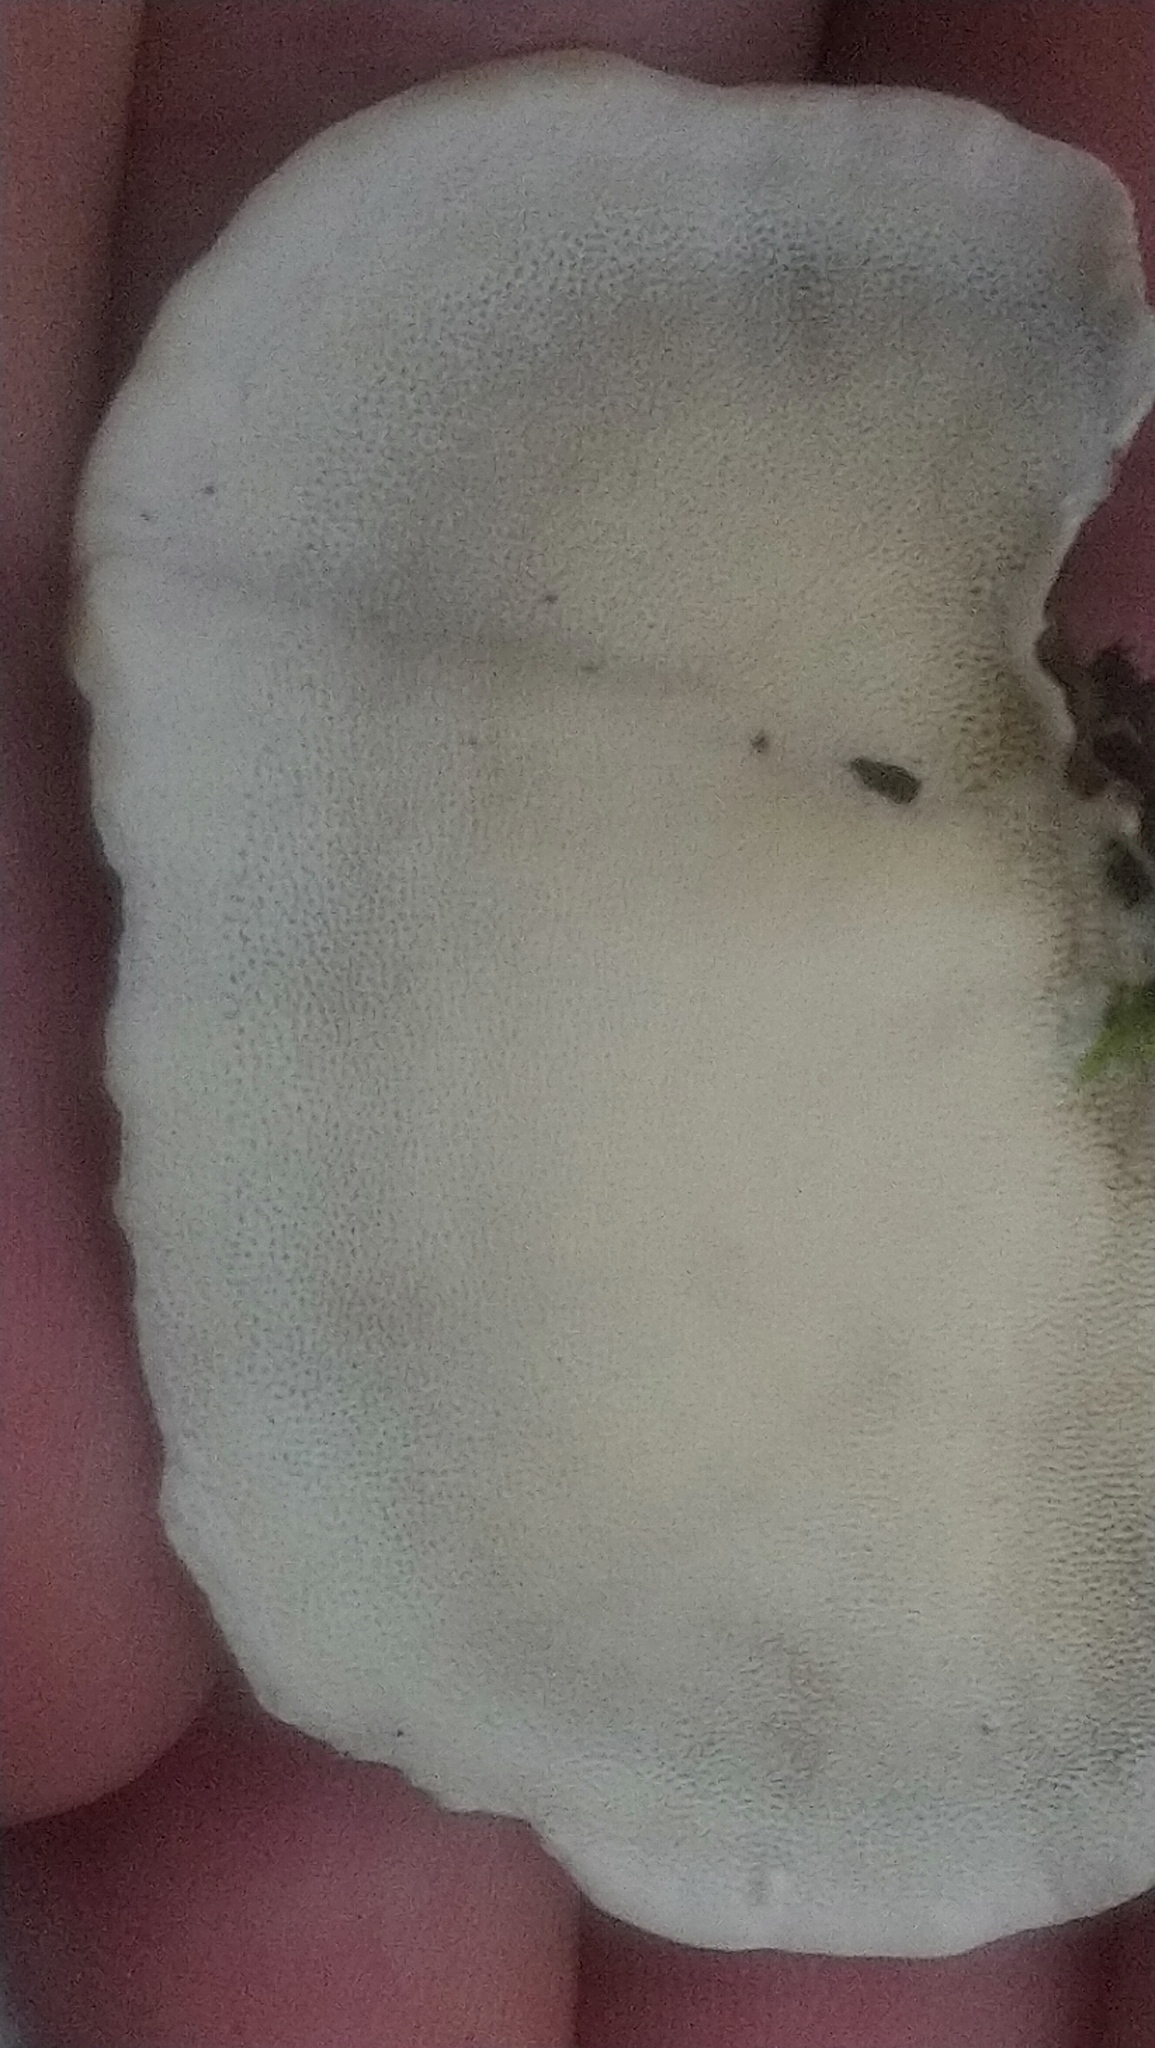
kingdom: Fungi
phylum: Basidiomycota
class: Agaricomycetes
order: Polyporales
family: Polyporaceae
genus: Trametes
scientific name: Trametes versicolor
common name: Turkeytail
